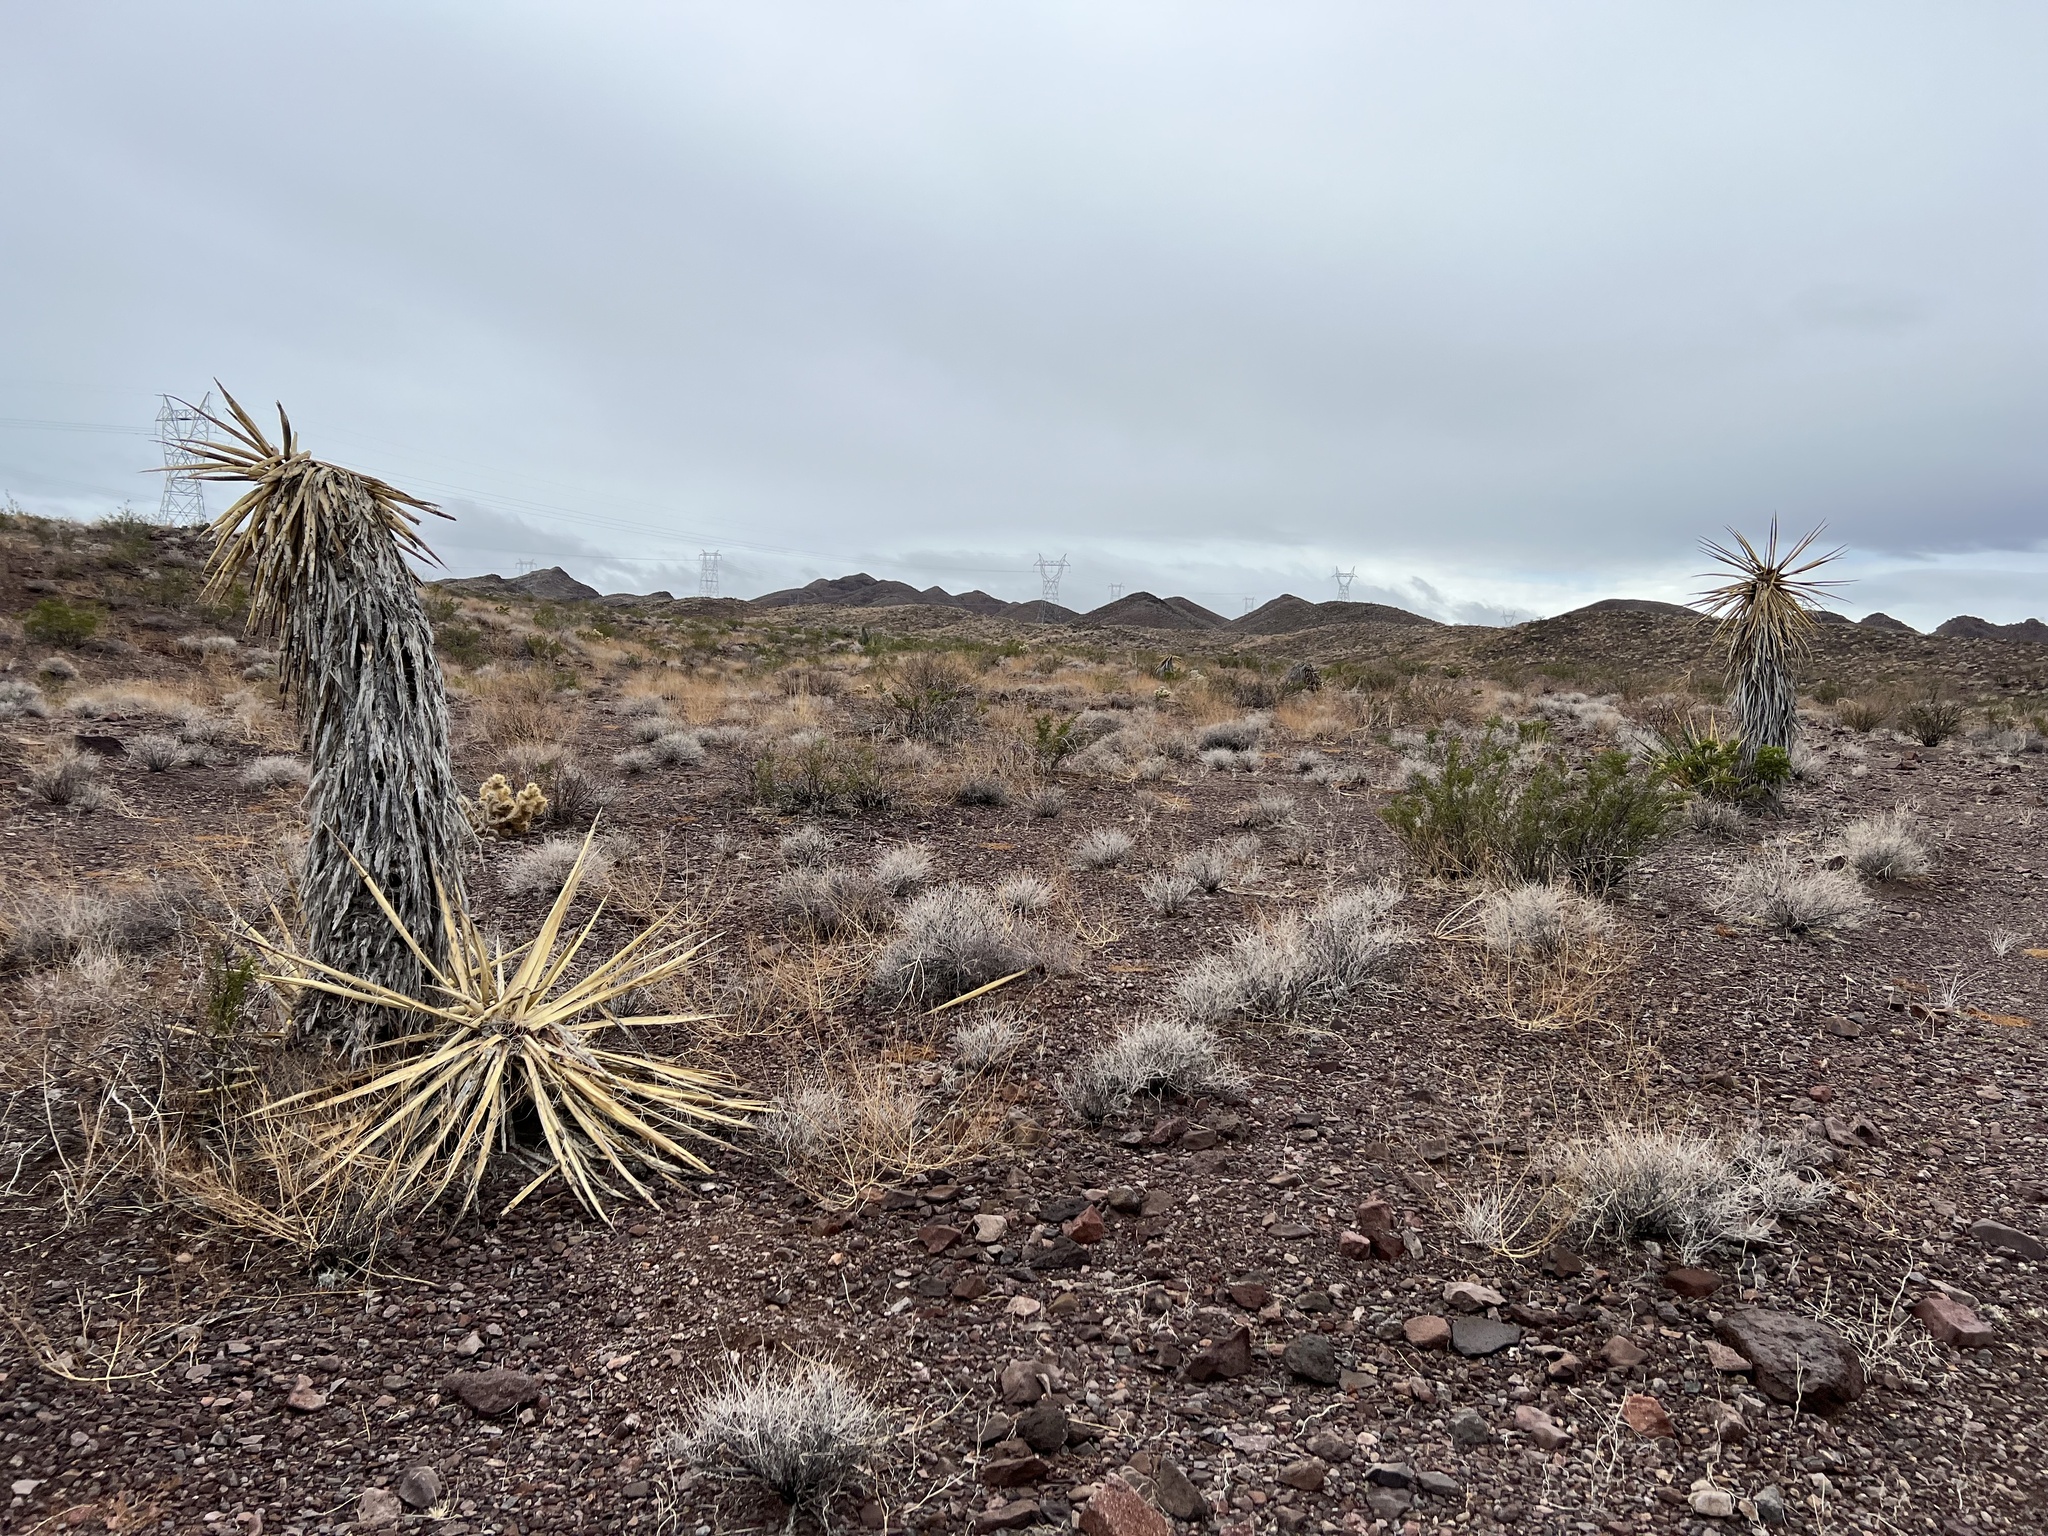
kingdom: Plantae
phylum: Tracheophyta
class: Liliopsida
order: Asparagales
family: Asparagaceae
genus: Yucca
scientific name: Yucca schidigera
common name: Mojave yucca
